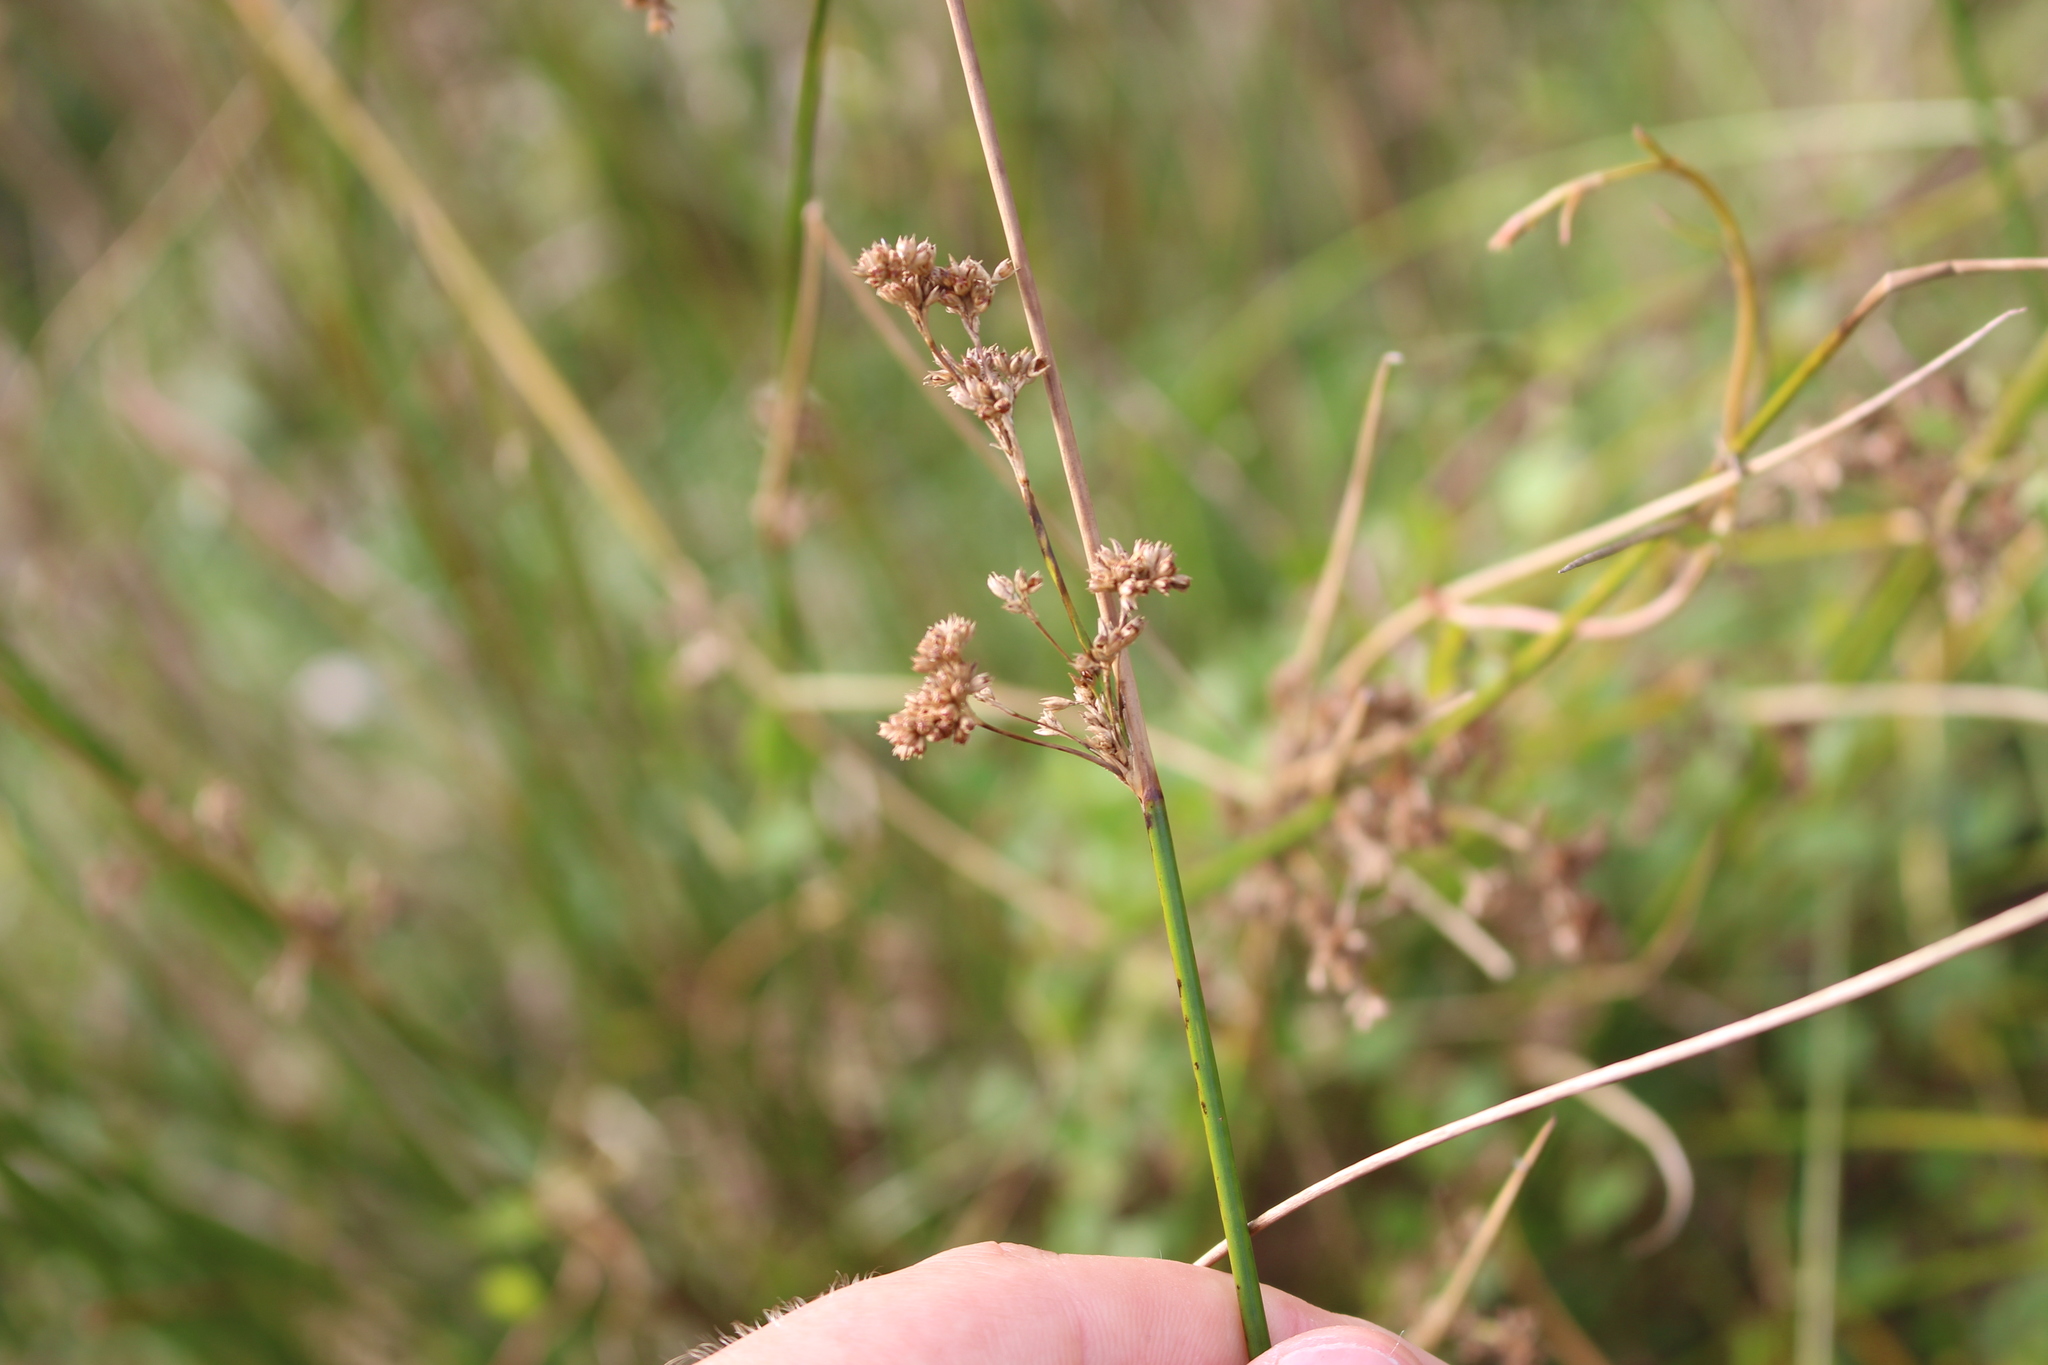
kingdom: Plantae
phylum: Tracheophyta
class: Liliopsida
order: Poales
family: Juncaceae
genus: Juncus
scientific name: Juncus edgariae
